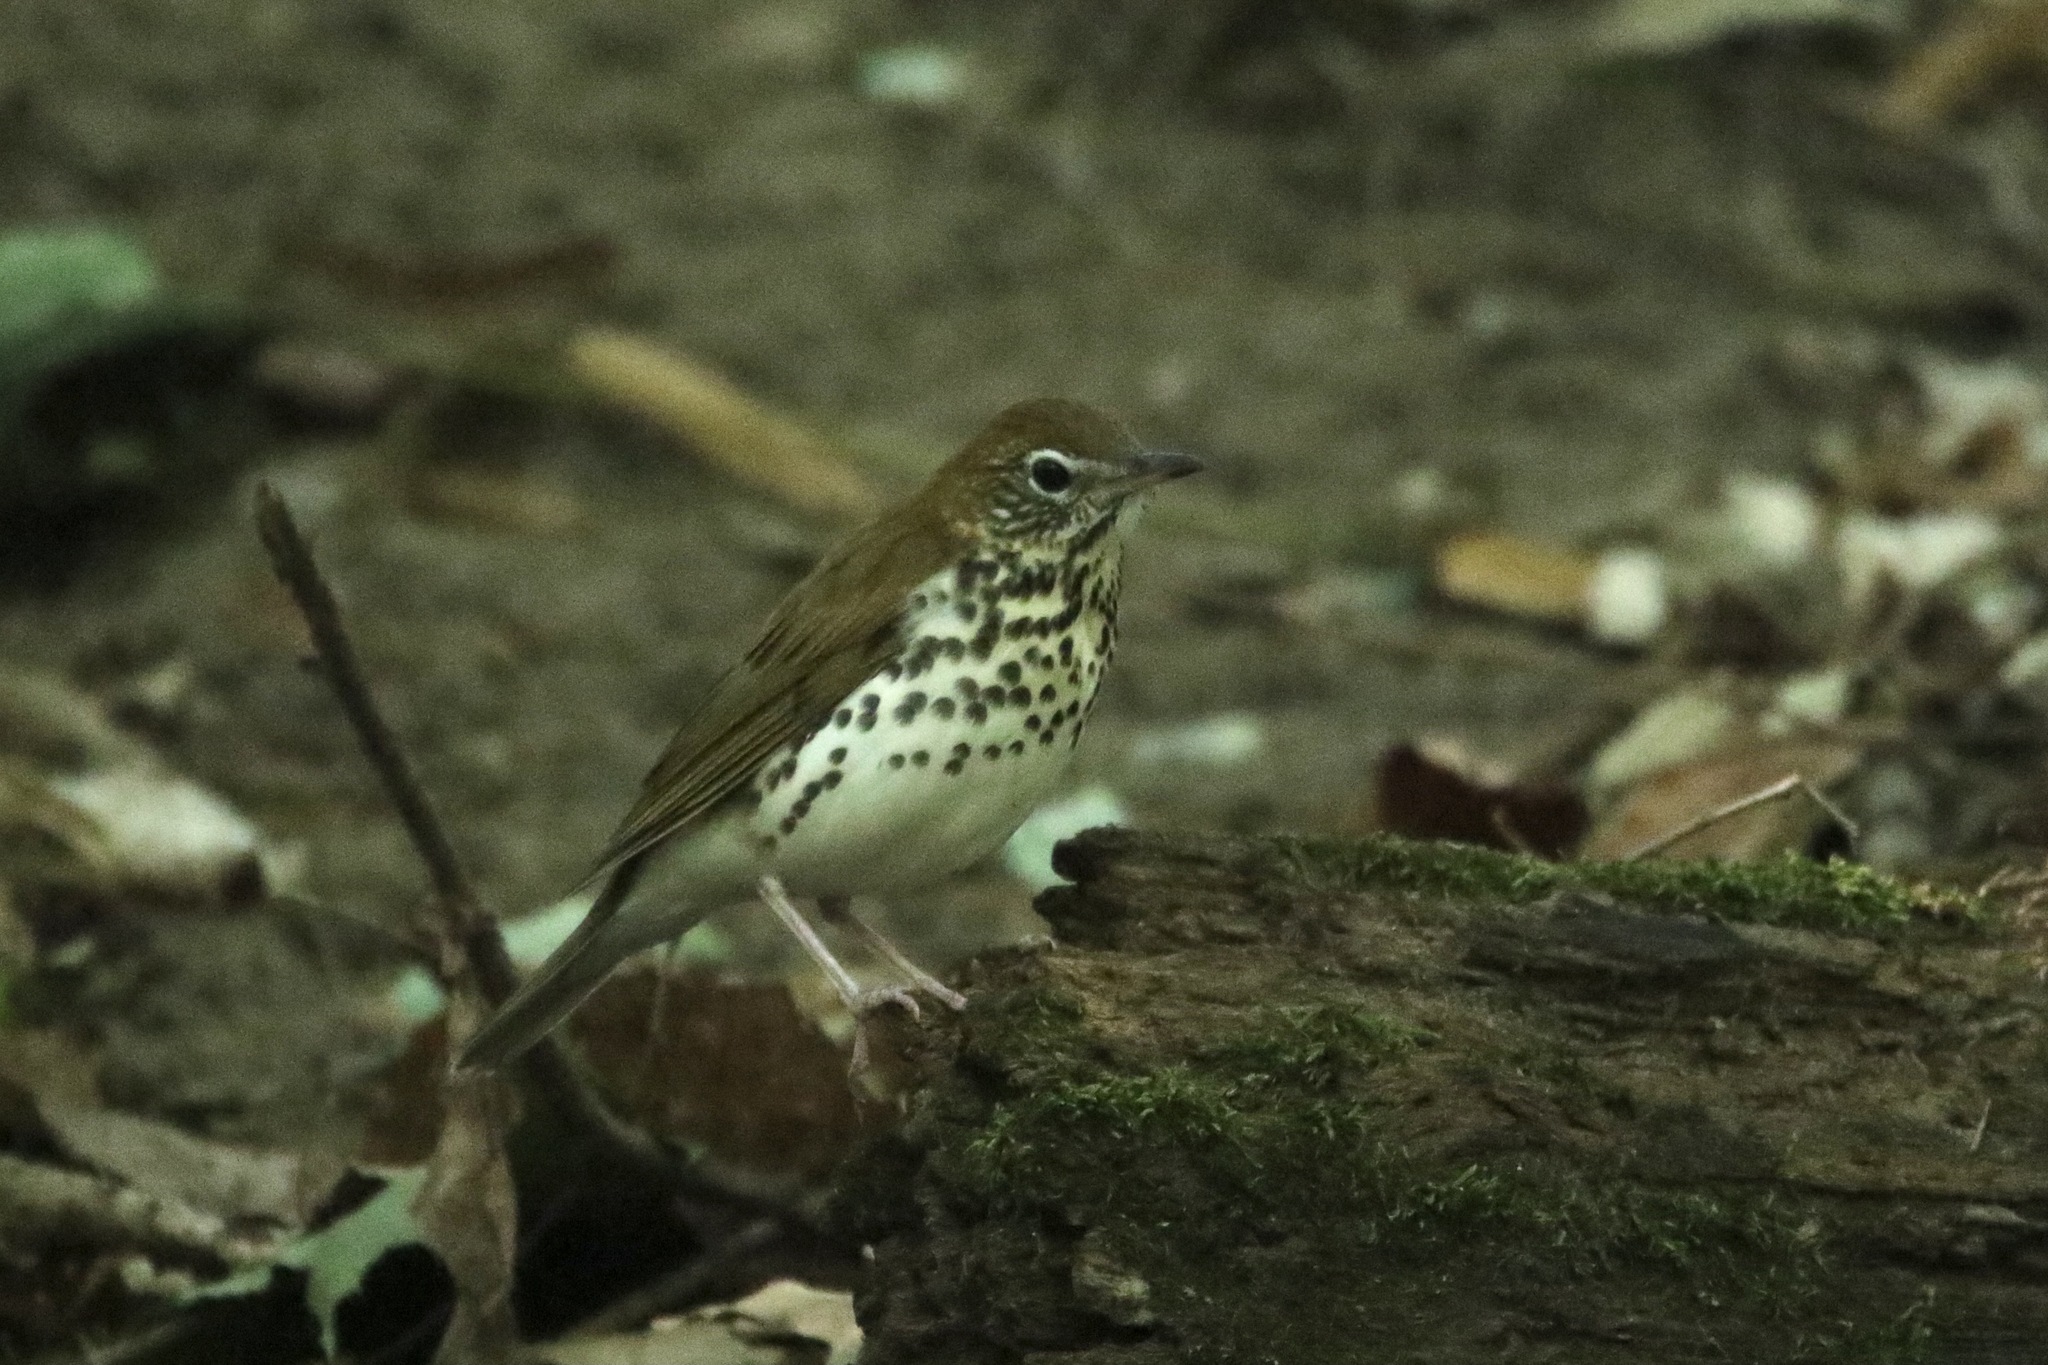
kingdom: Animalia
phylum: Chordata
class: Aves
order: Passeriformes
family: Turdidae
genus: Hylocichla
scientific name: Hylocichla mustelina
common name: Wood thrush
